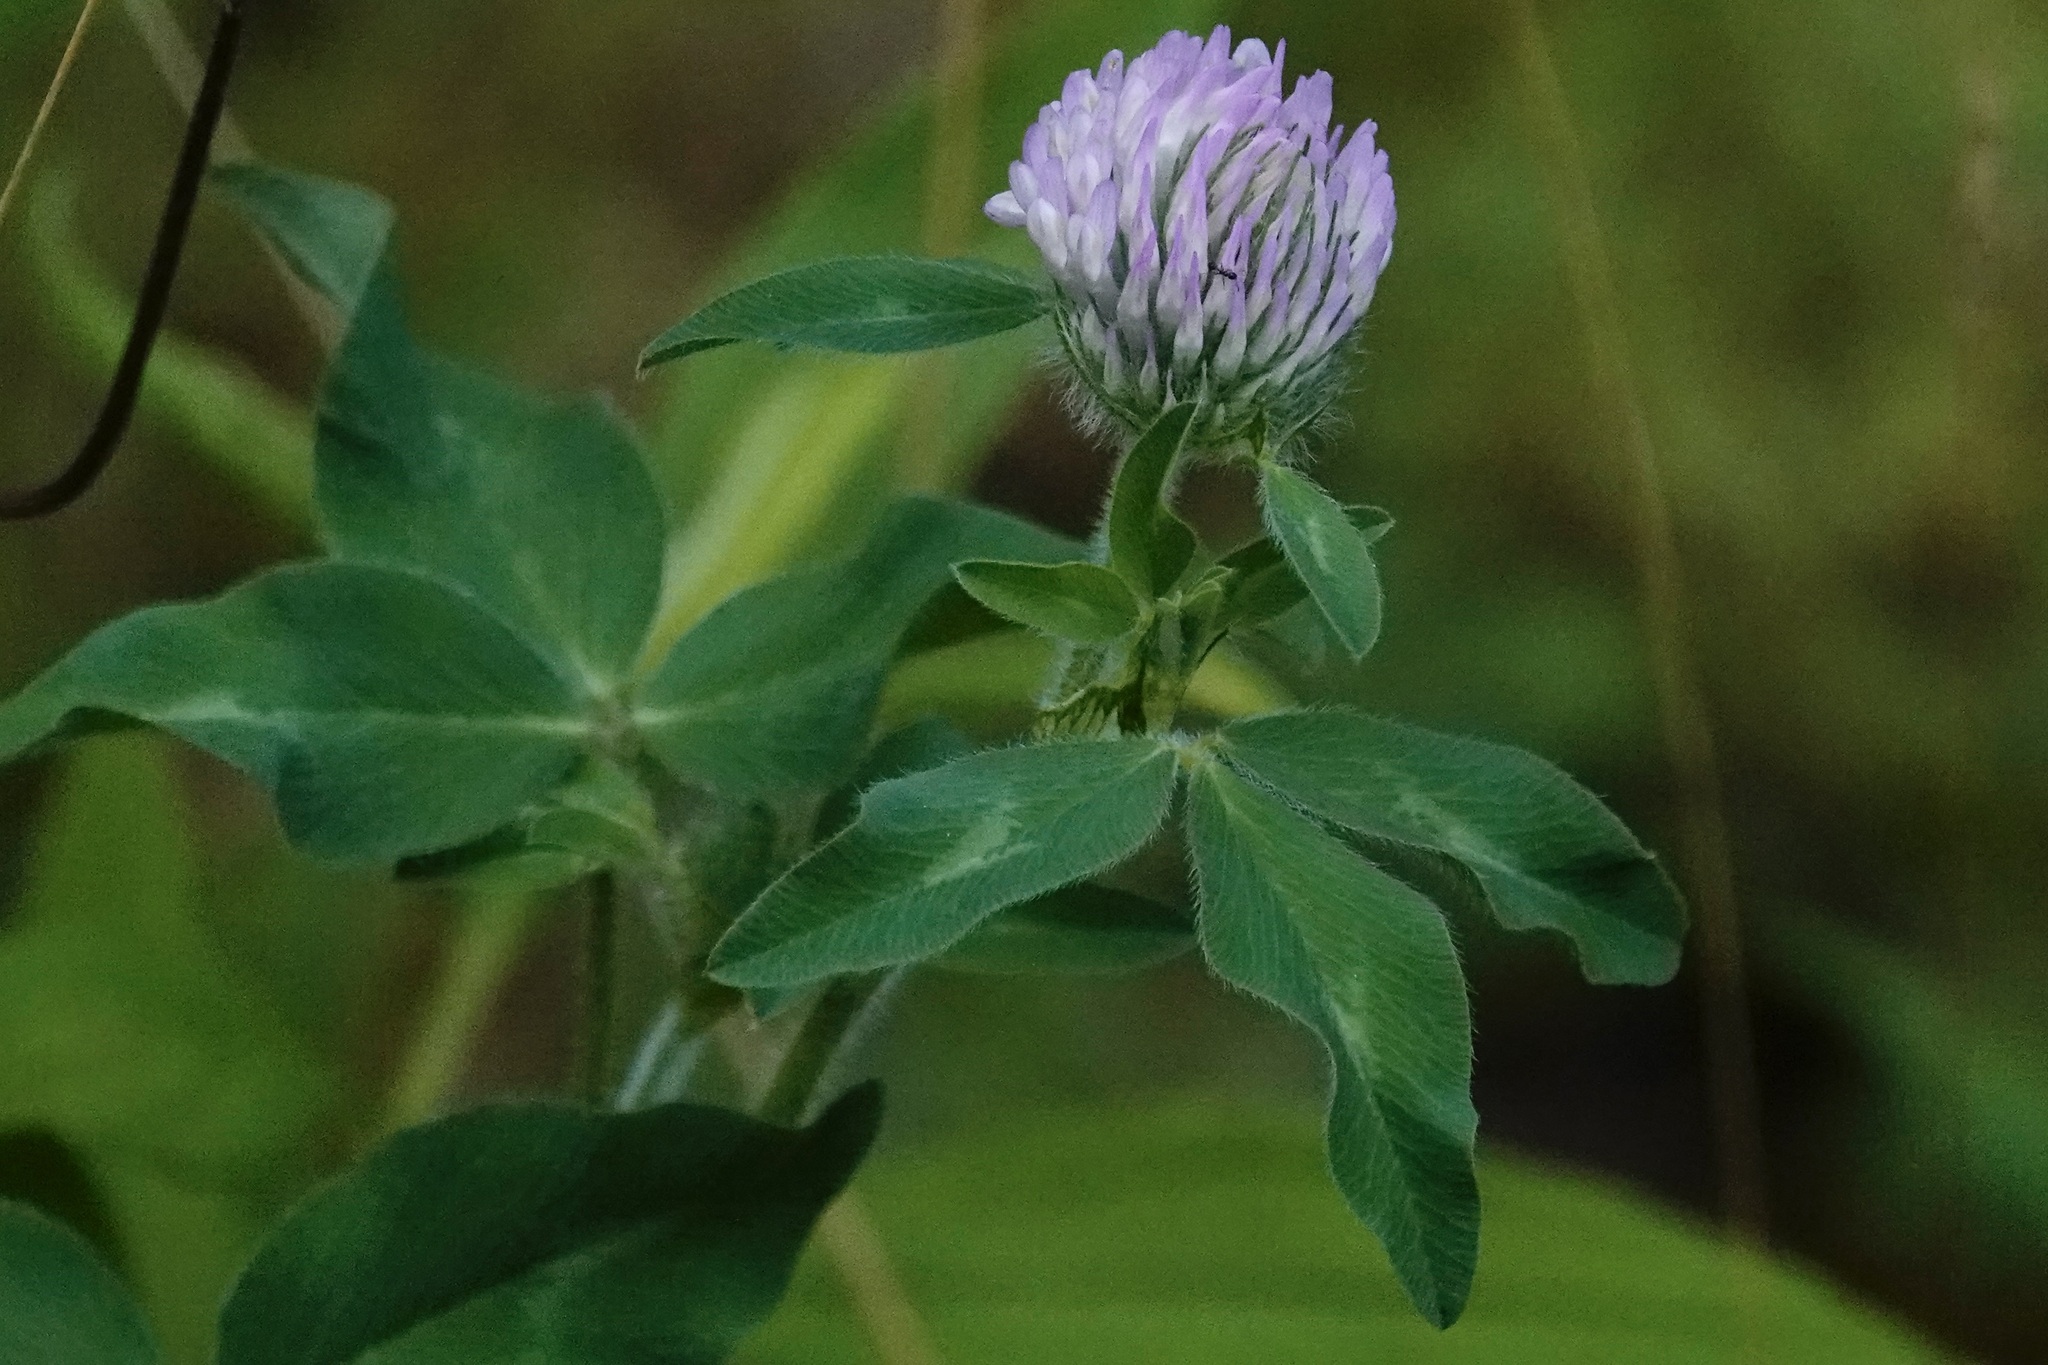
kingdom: Plantae
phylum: Tracheophyta
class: Magnoliopsida
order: Fabales
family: Fabaceae
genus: Trifolium
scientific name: Trifolium pratense
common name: Red clover
